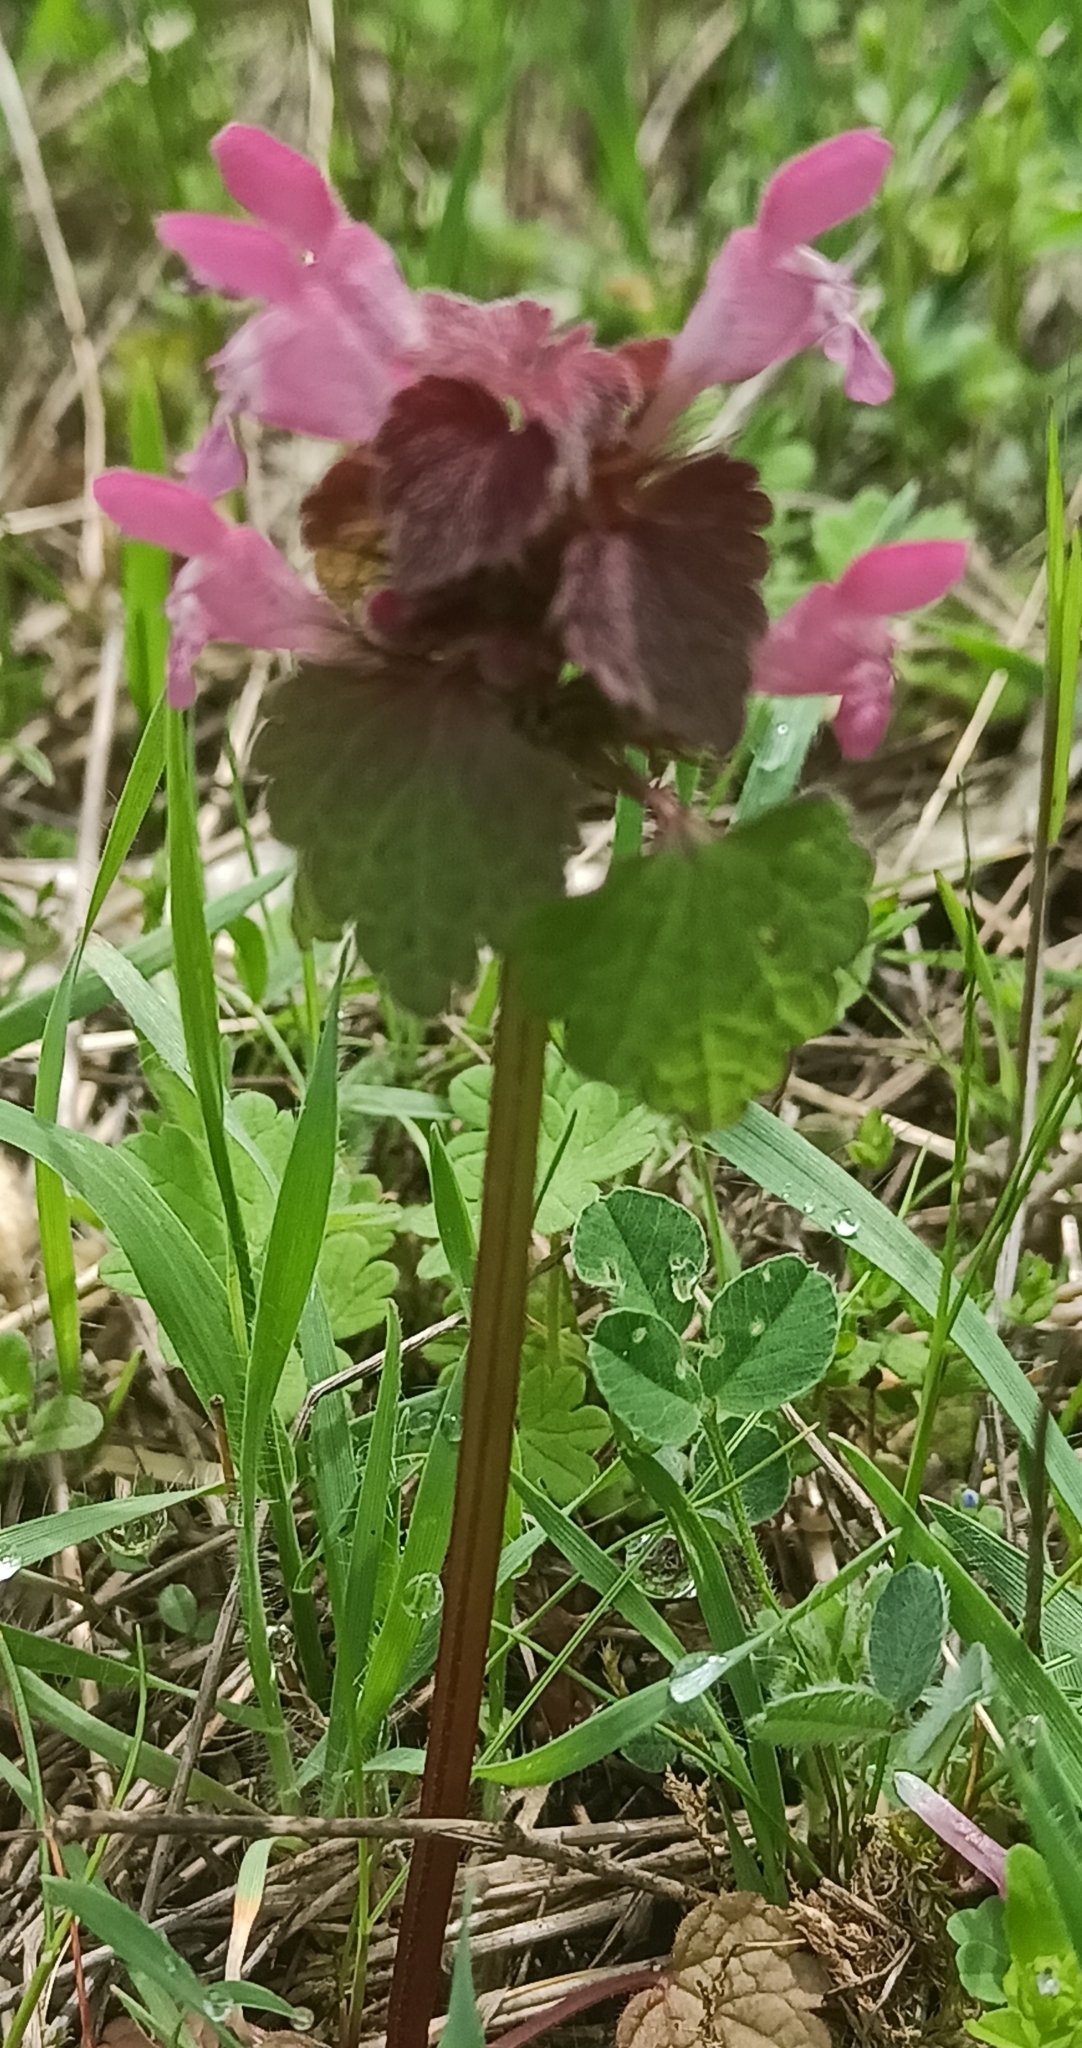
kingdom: Plantae
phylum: Tracheophyta
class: Magnoliopsida
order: Lamiales
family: Lamiaceae
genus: Lamium
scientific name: Lamium purpureum
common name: Red dead-nettle
